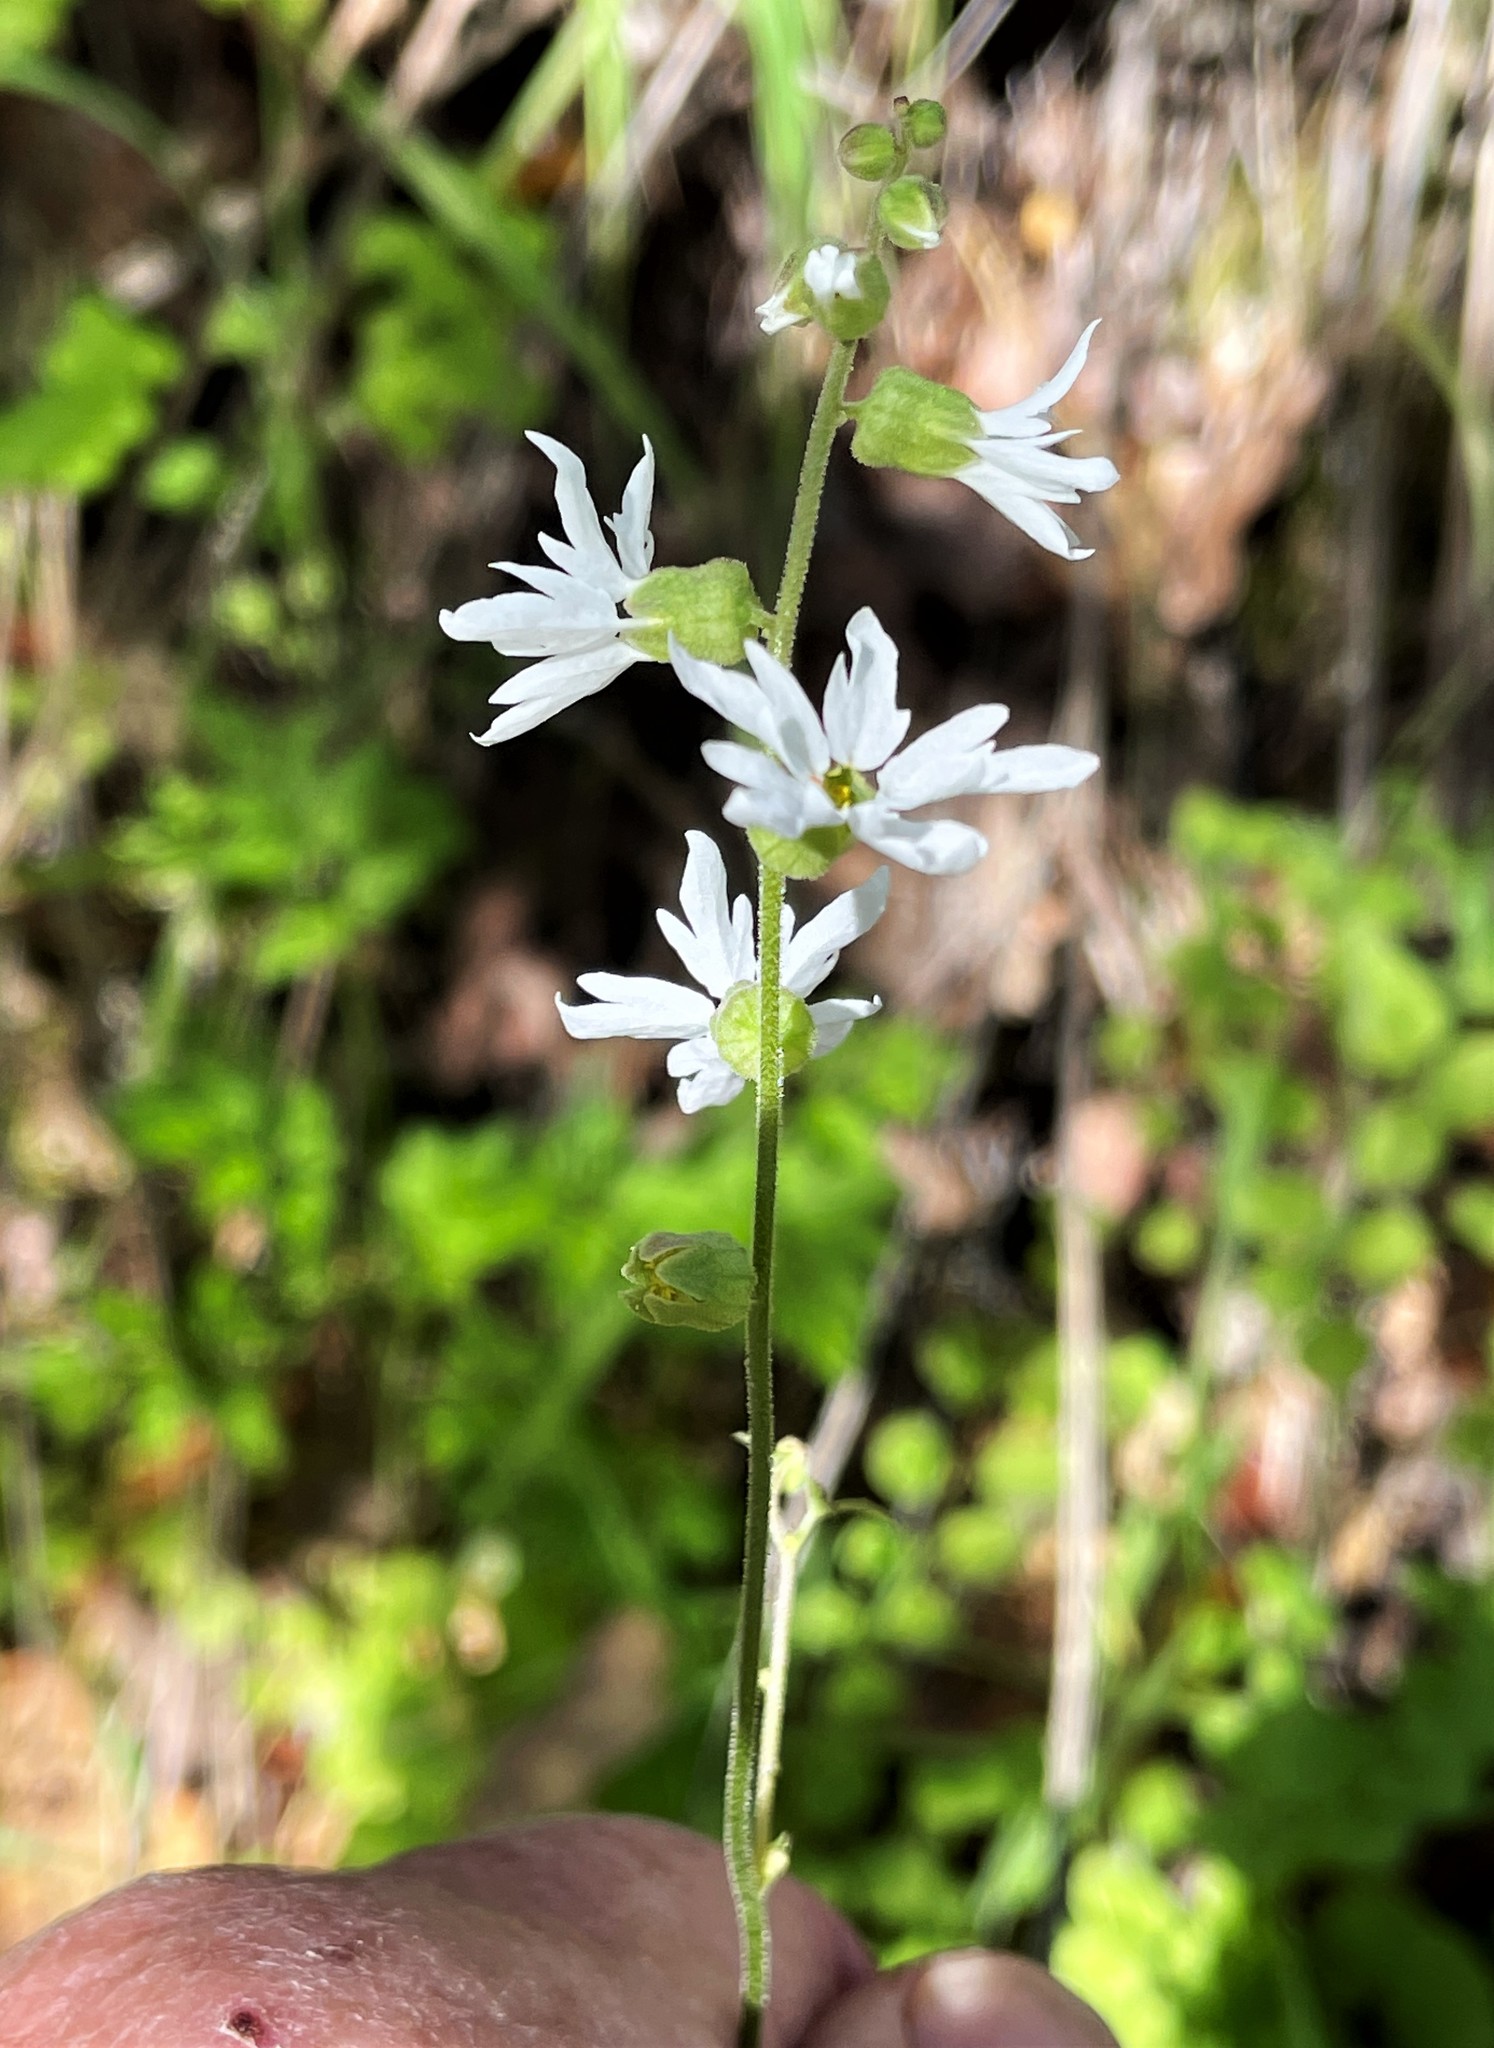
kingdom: Plantae
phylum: Tracheophyta
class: Magnoliopsida
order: Saxifragales
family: Saxifragaceae
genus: Lithophragma
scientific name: Lithophragma heterophyllum
